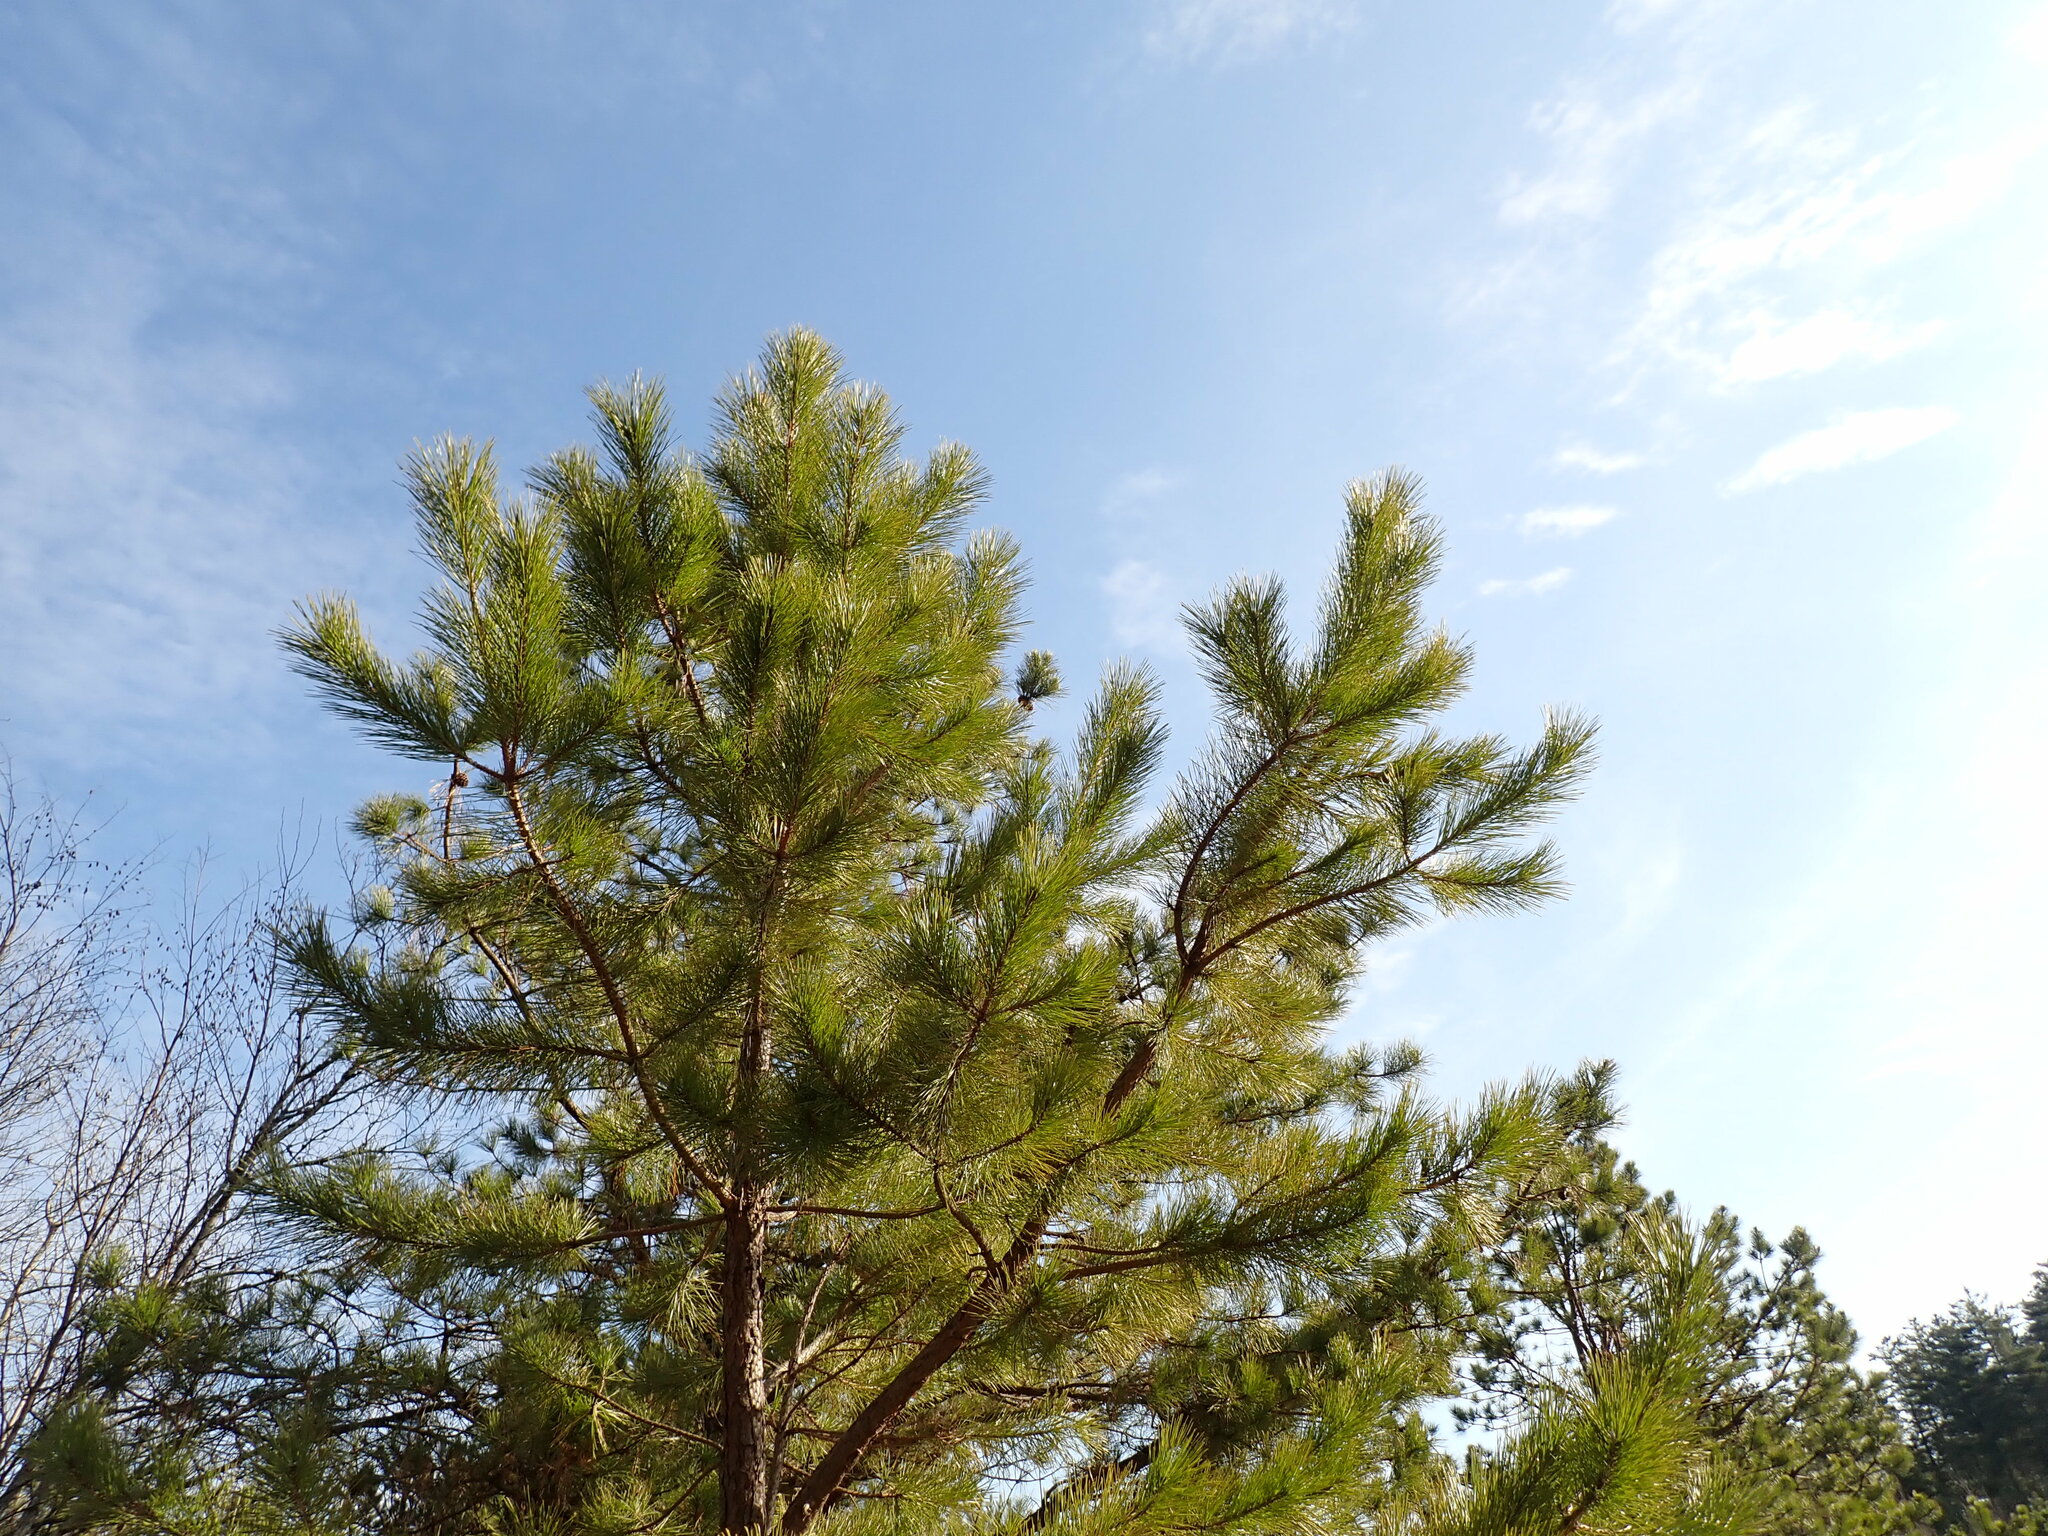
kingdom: Plantae
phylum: Tracheophyta
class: Pinopsida
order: Pinales
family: Pinaceae
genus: Pinus
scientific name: Pinus rigida
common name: Pitch pine
